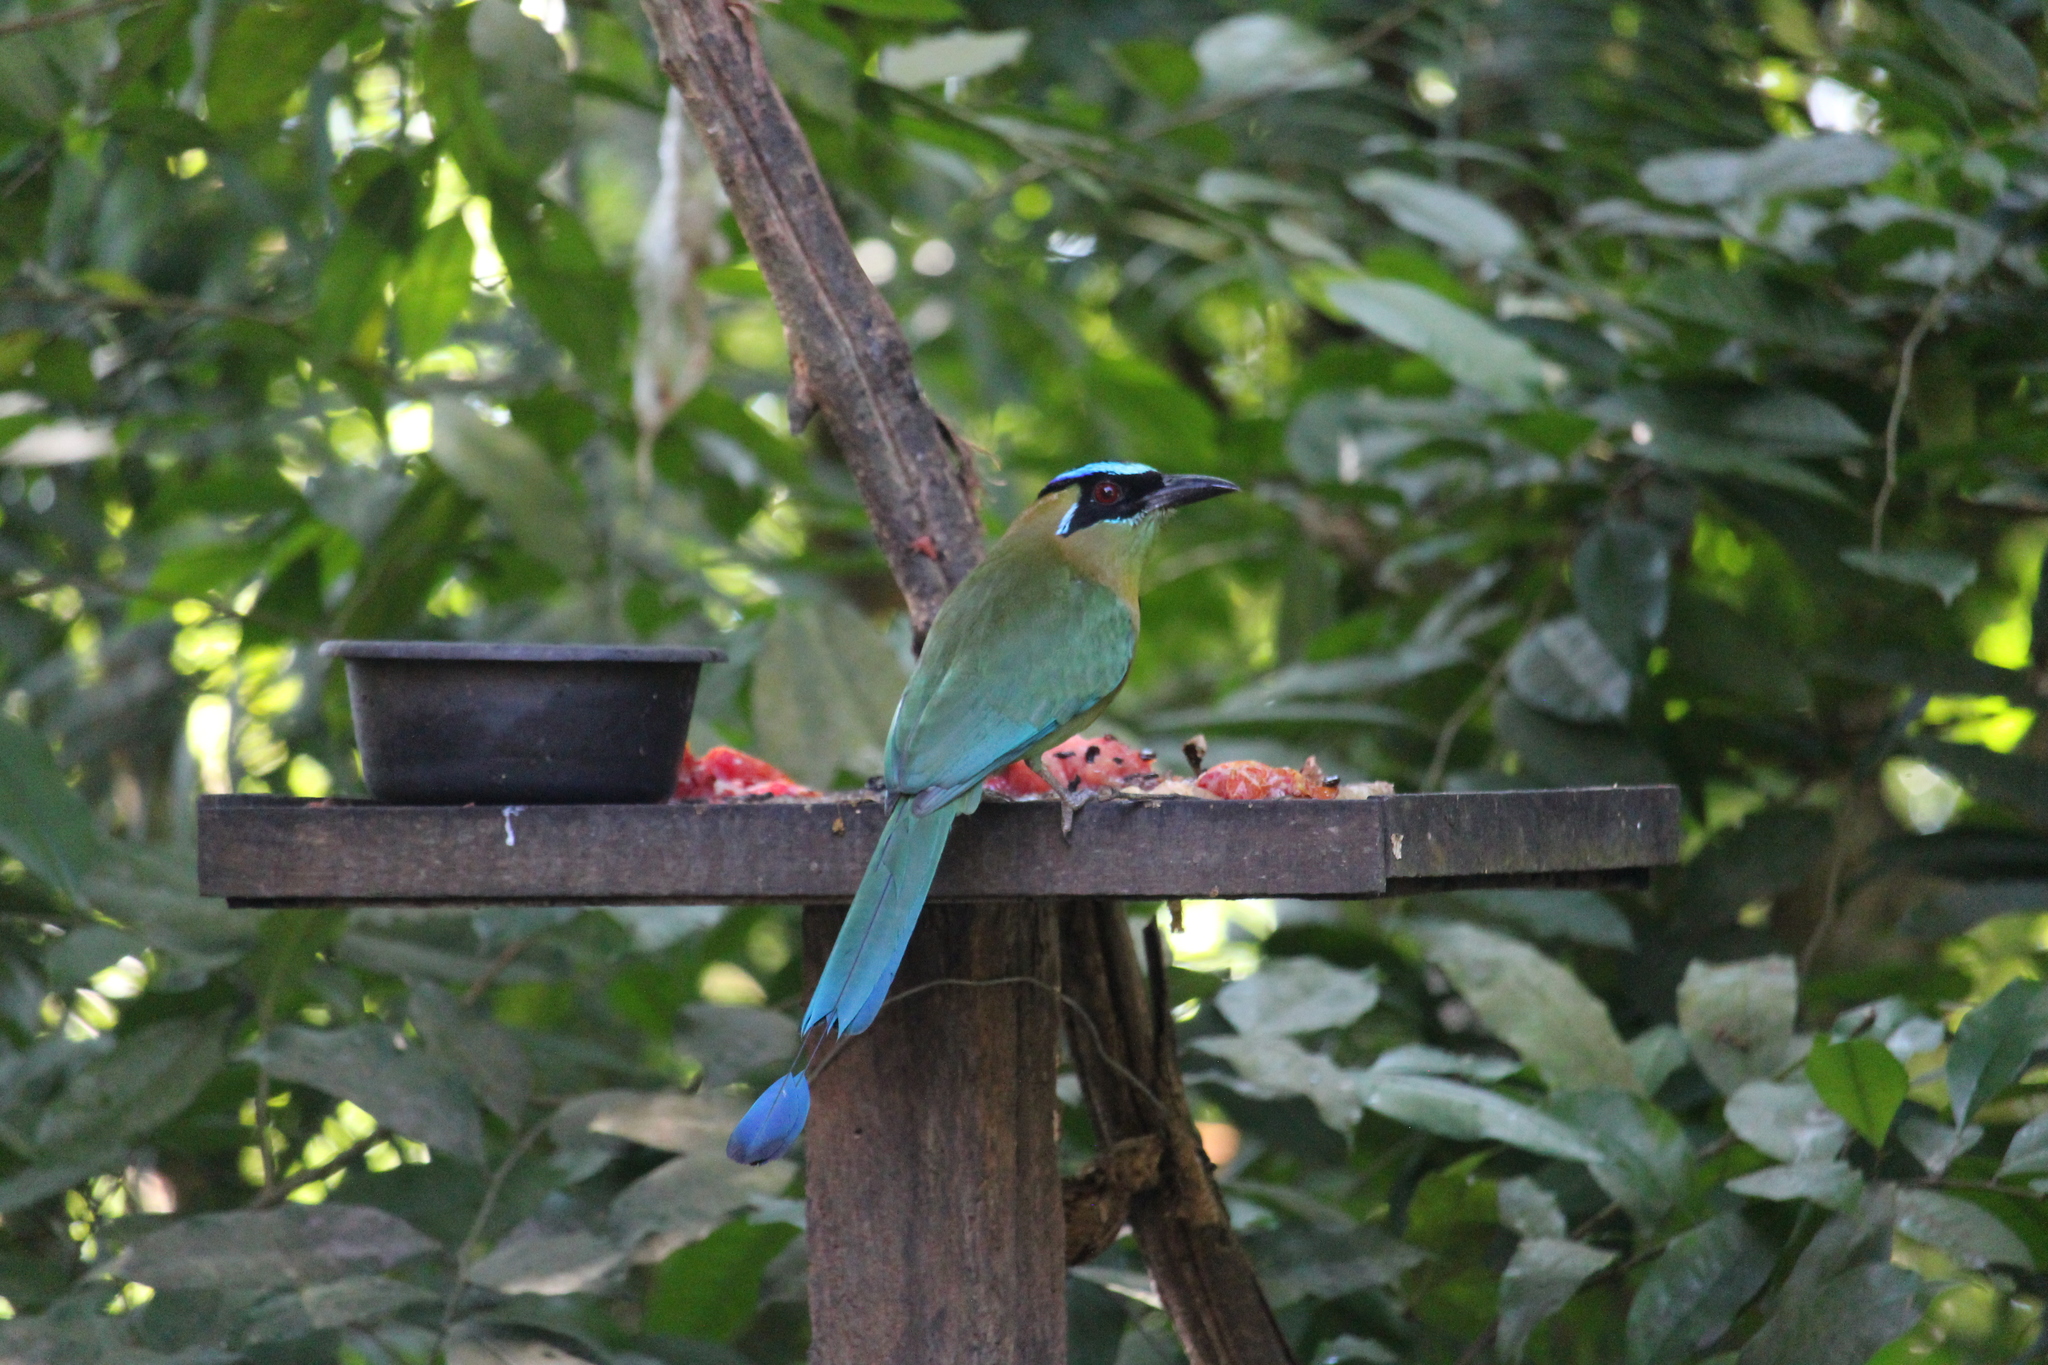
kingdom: Animalia
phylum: Chordata
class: Aves
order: Coraciiformes
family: Momotidae
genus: Momotus
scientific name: Momotus lessonii
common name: Lesson's motmot
